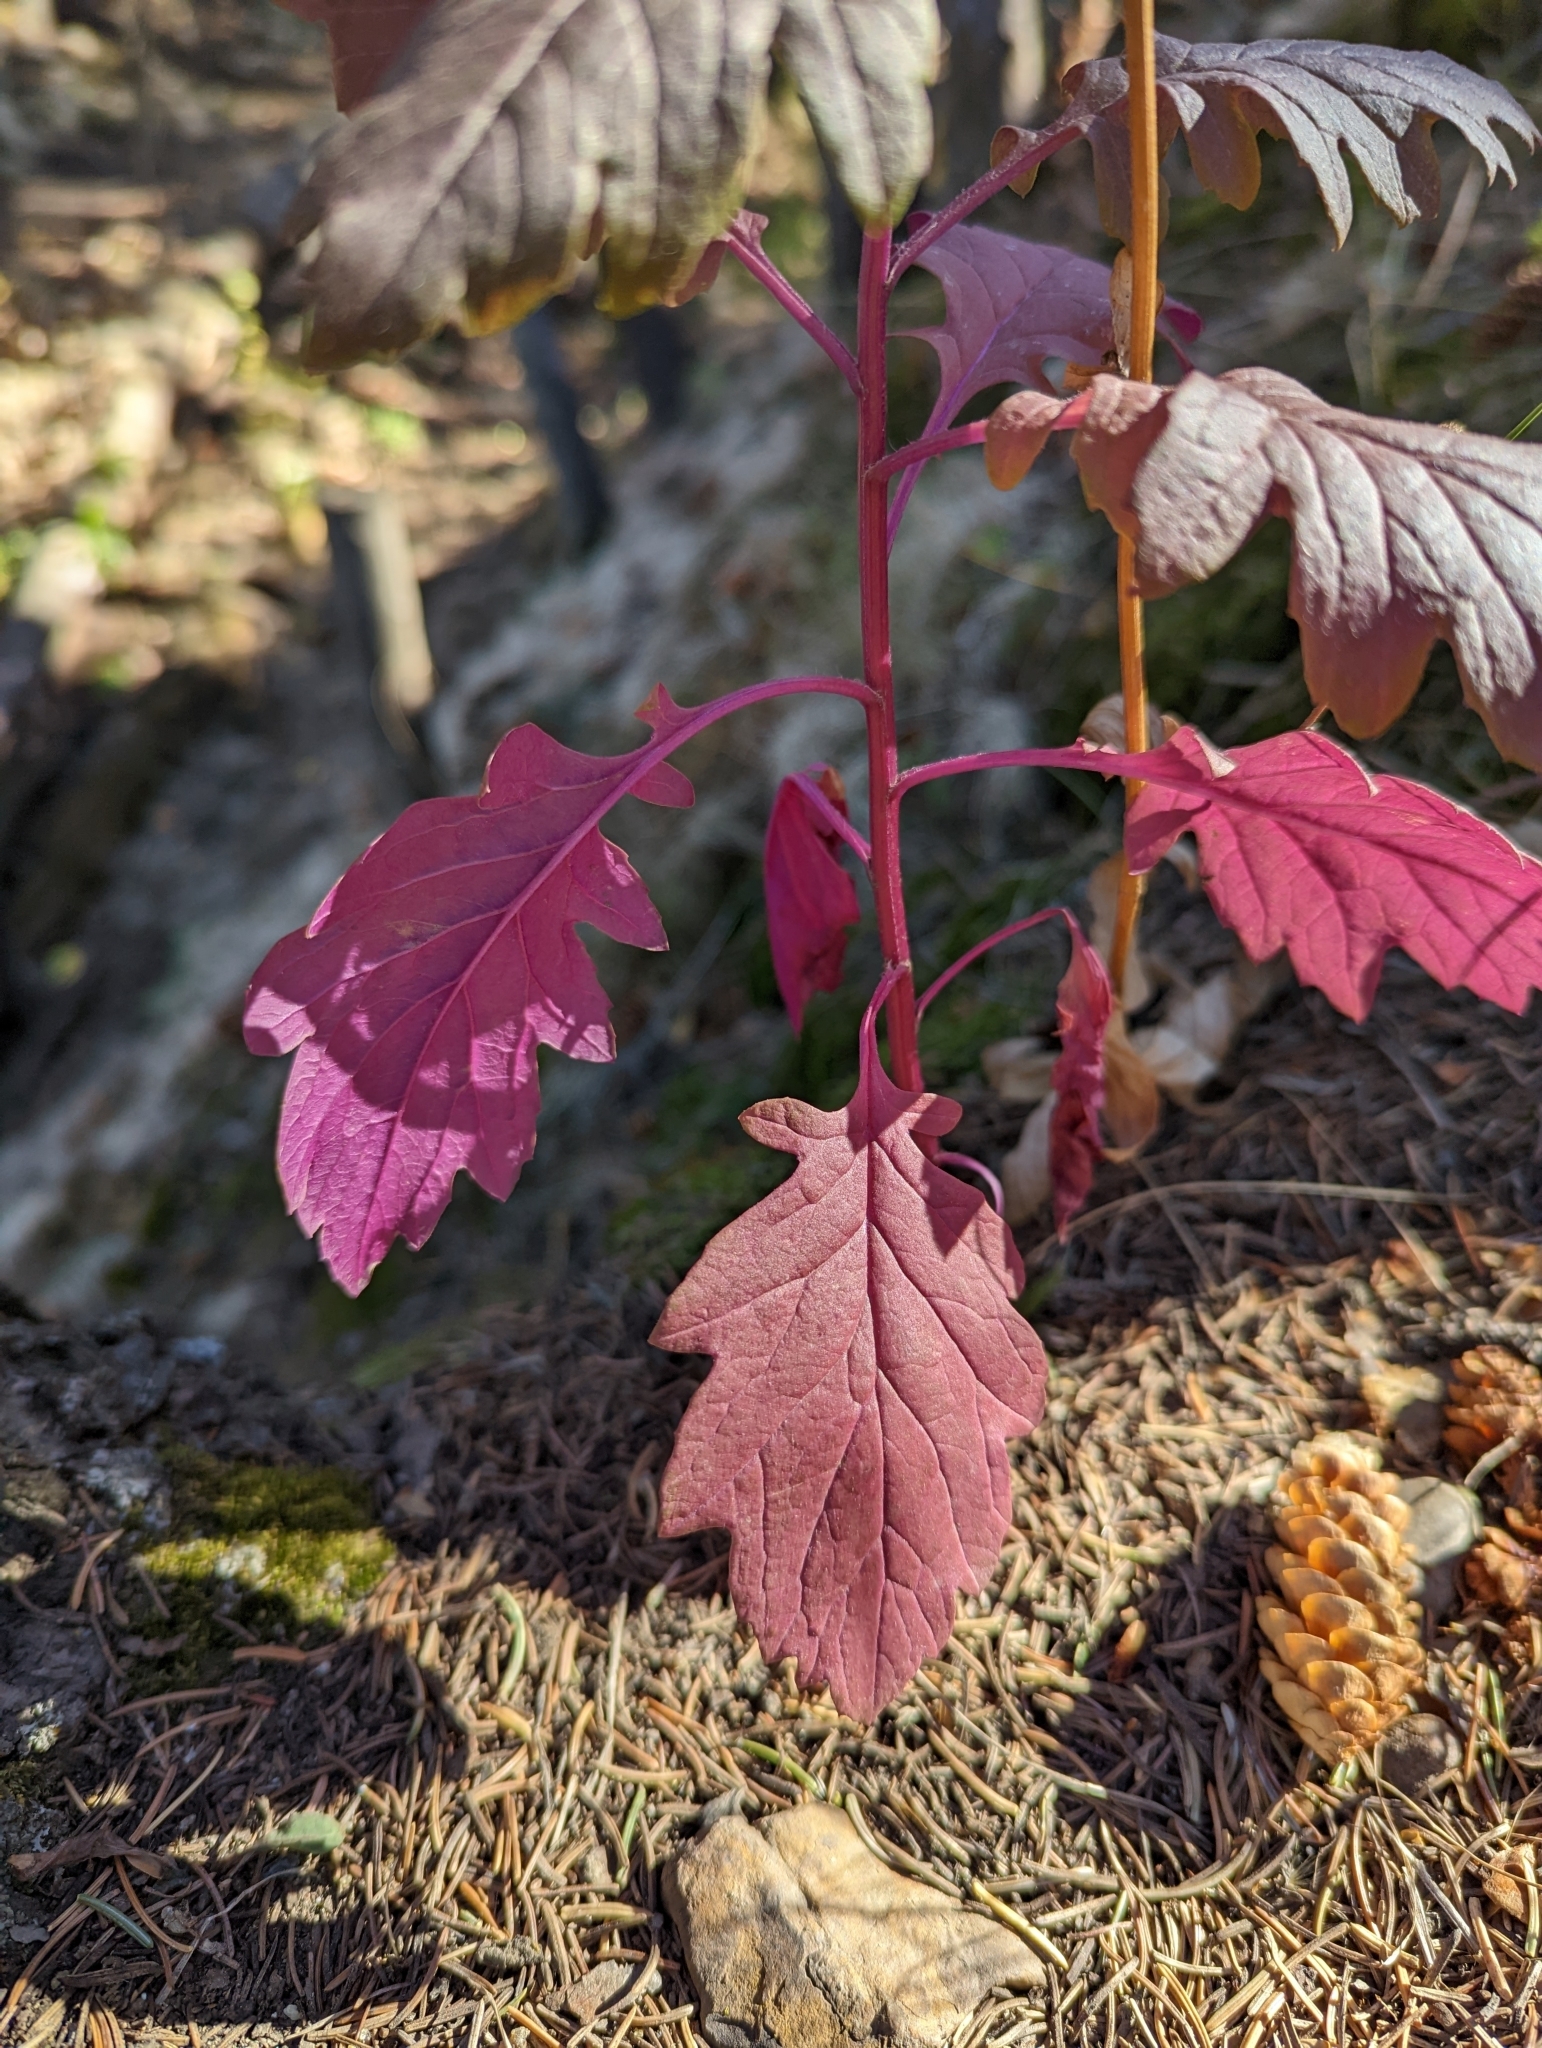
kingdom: Plantae
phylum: Tracheophyta
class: Magnoliopsida
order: Asterales
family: Asteraceae
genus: Senecio
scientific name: Senecio eremophilus
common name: Desert ragwort
